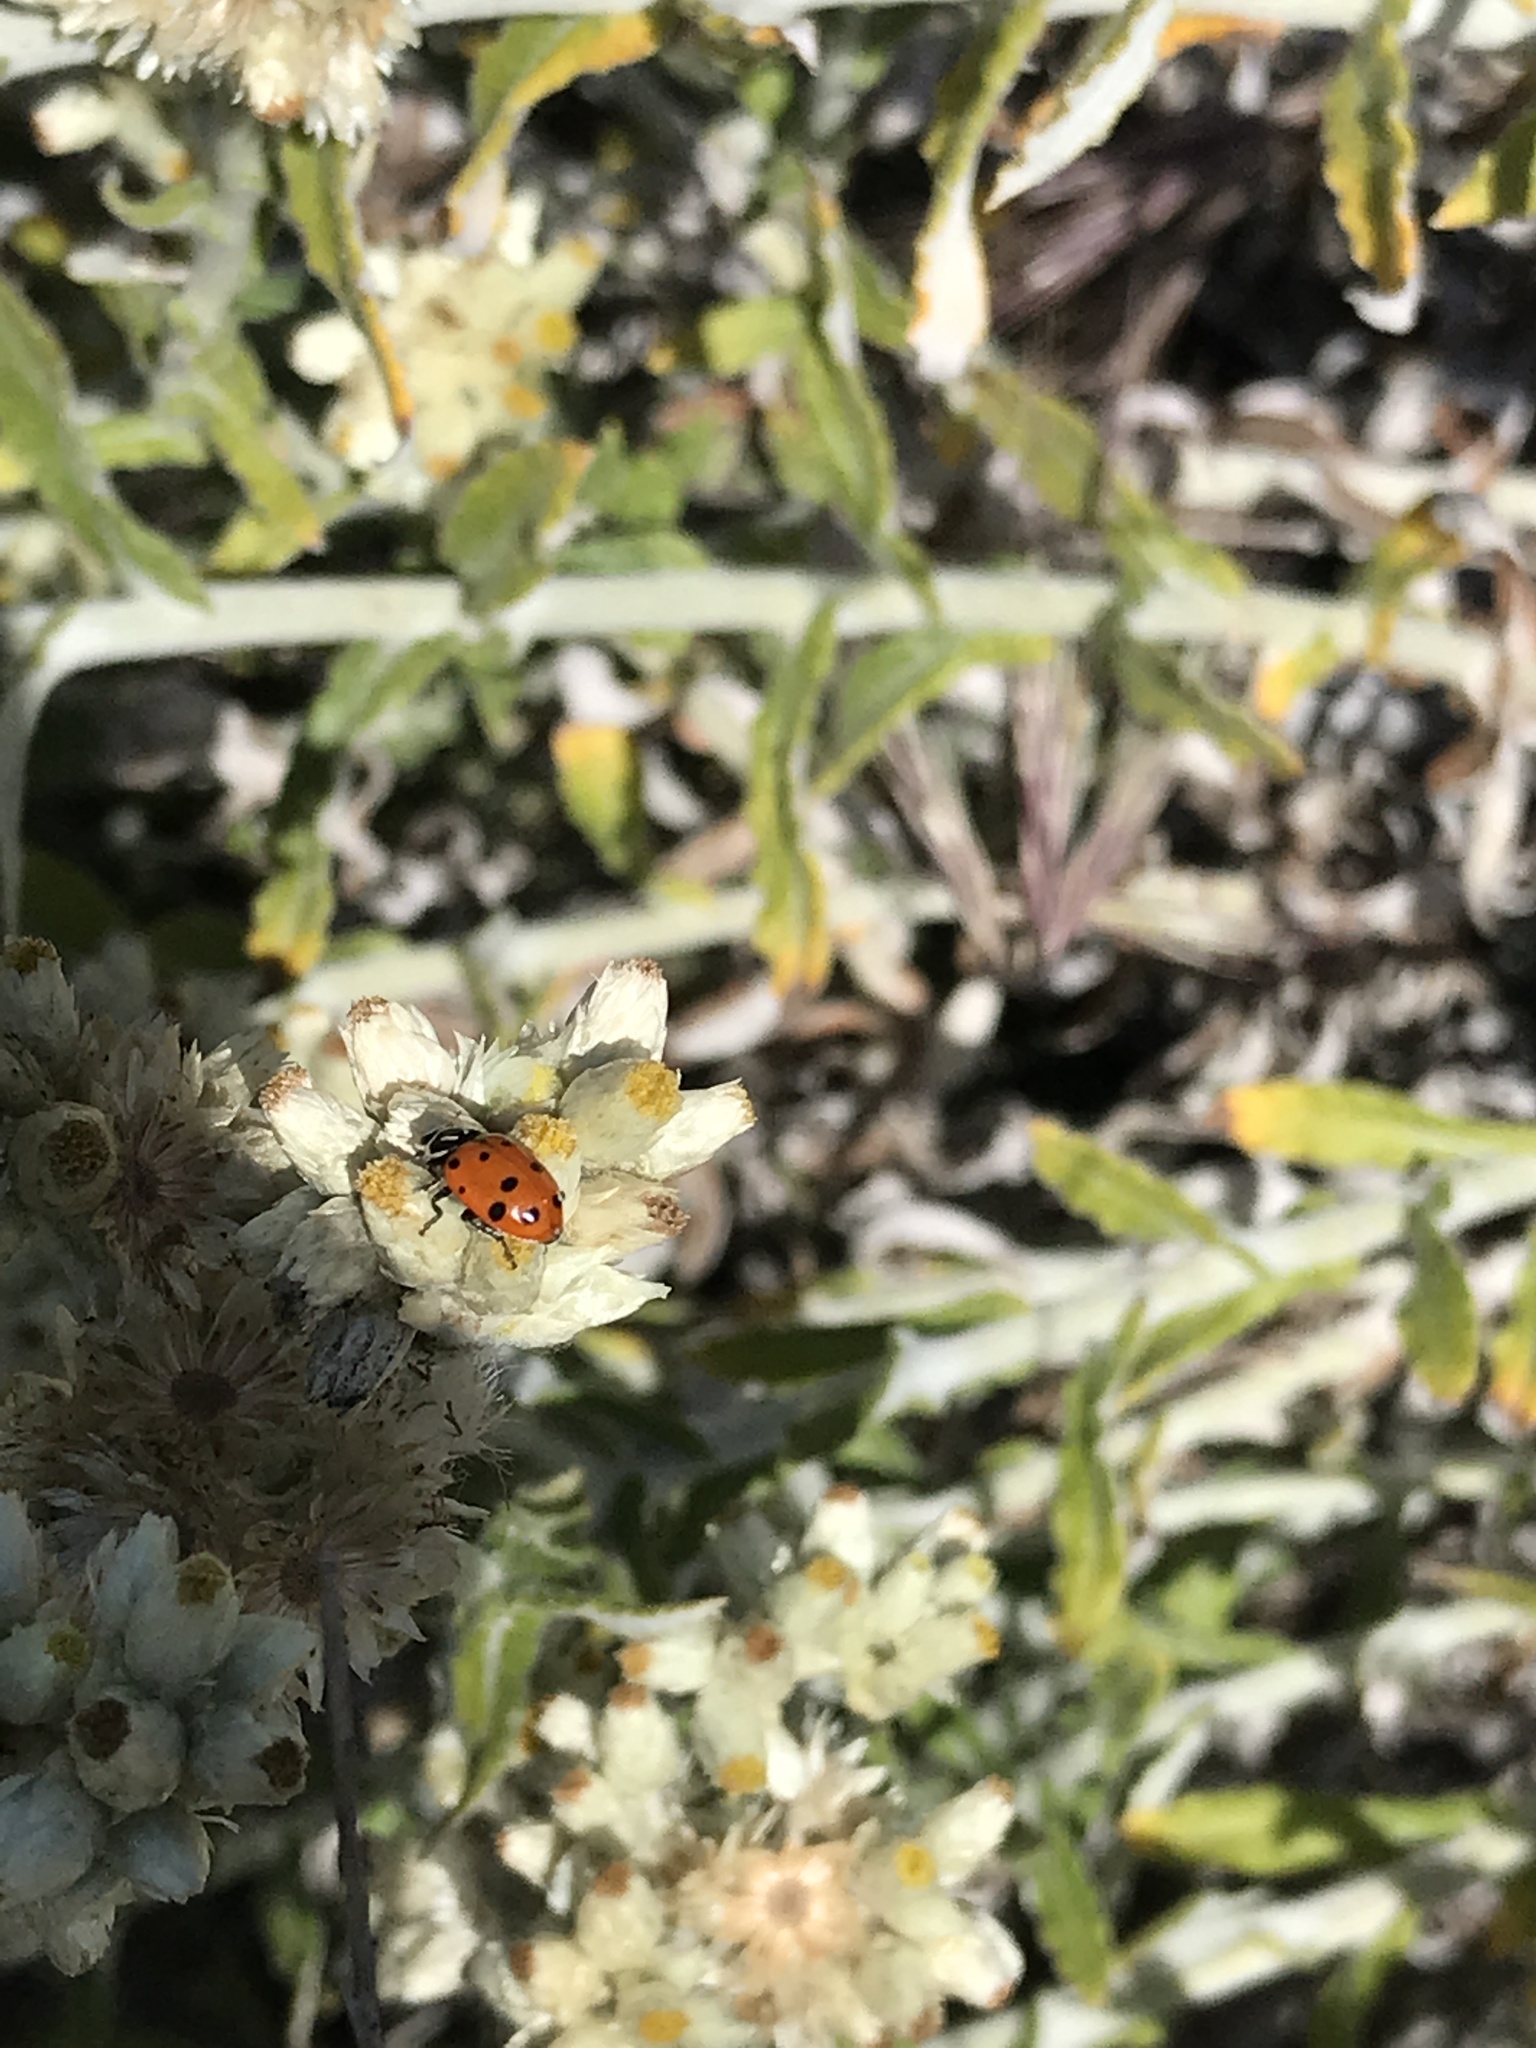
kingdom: Animalia
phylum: Arthropoda
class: Insecta
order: Coleoptera
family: Coccinellidae
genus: Hippodamia
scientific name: Hippodamia convergens
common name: Convergent lady beetle
